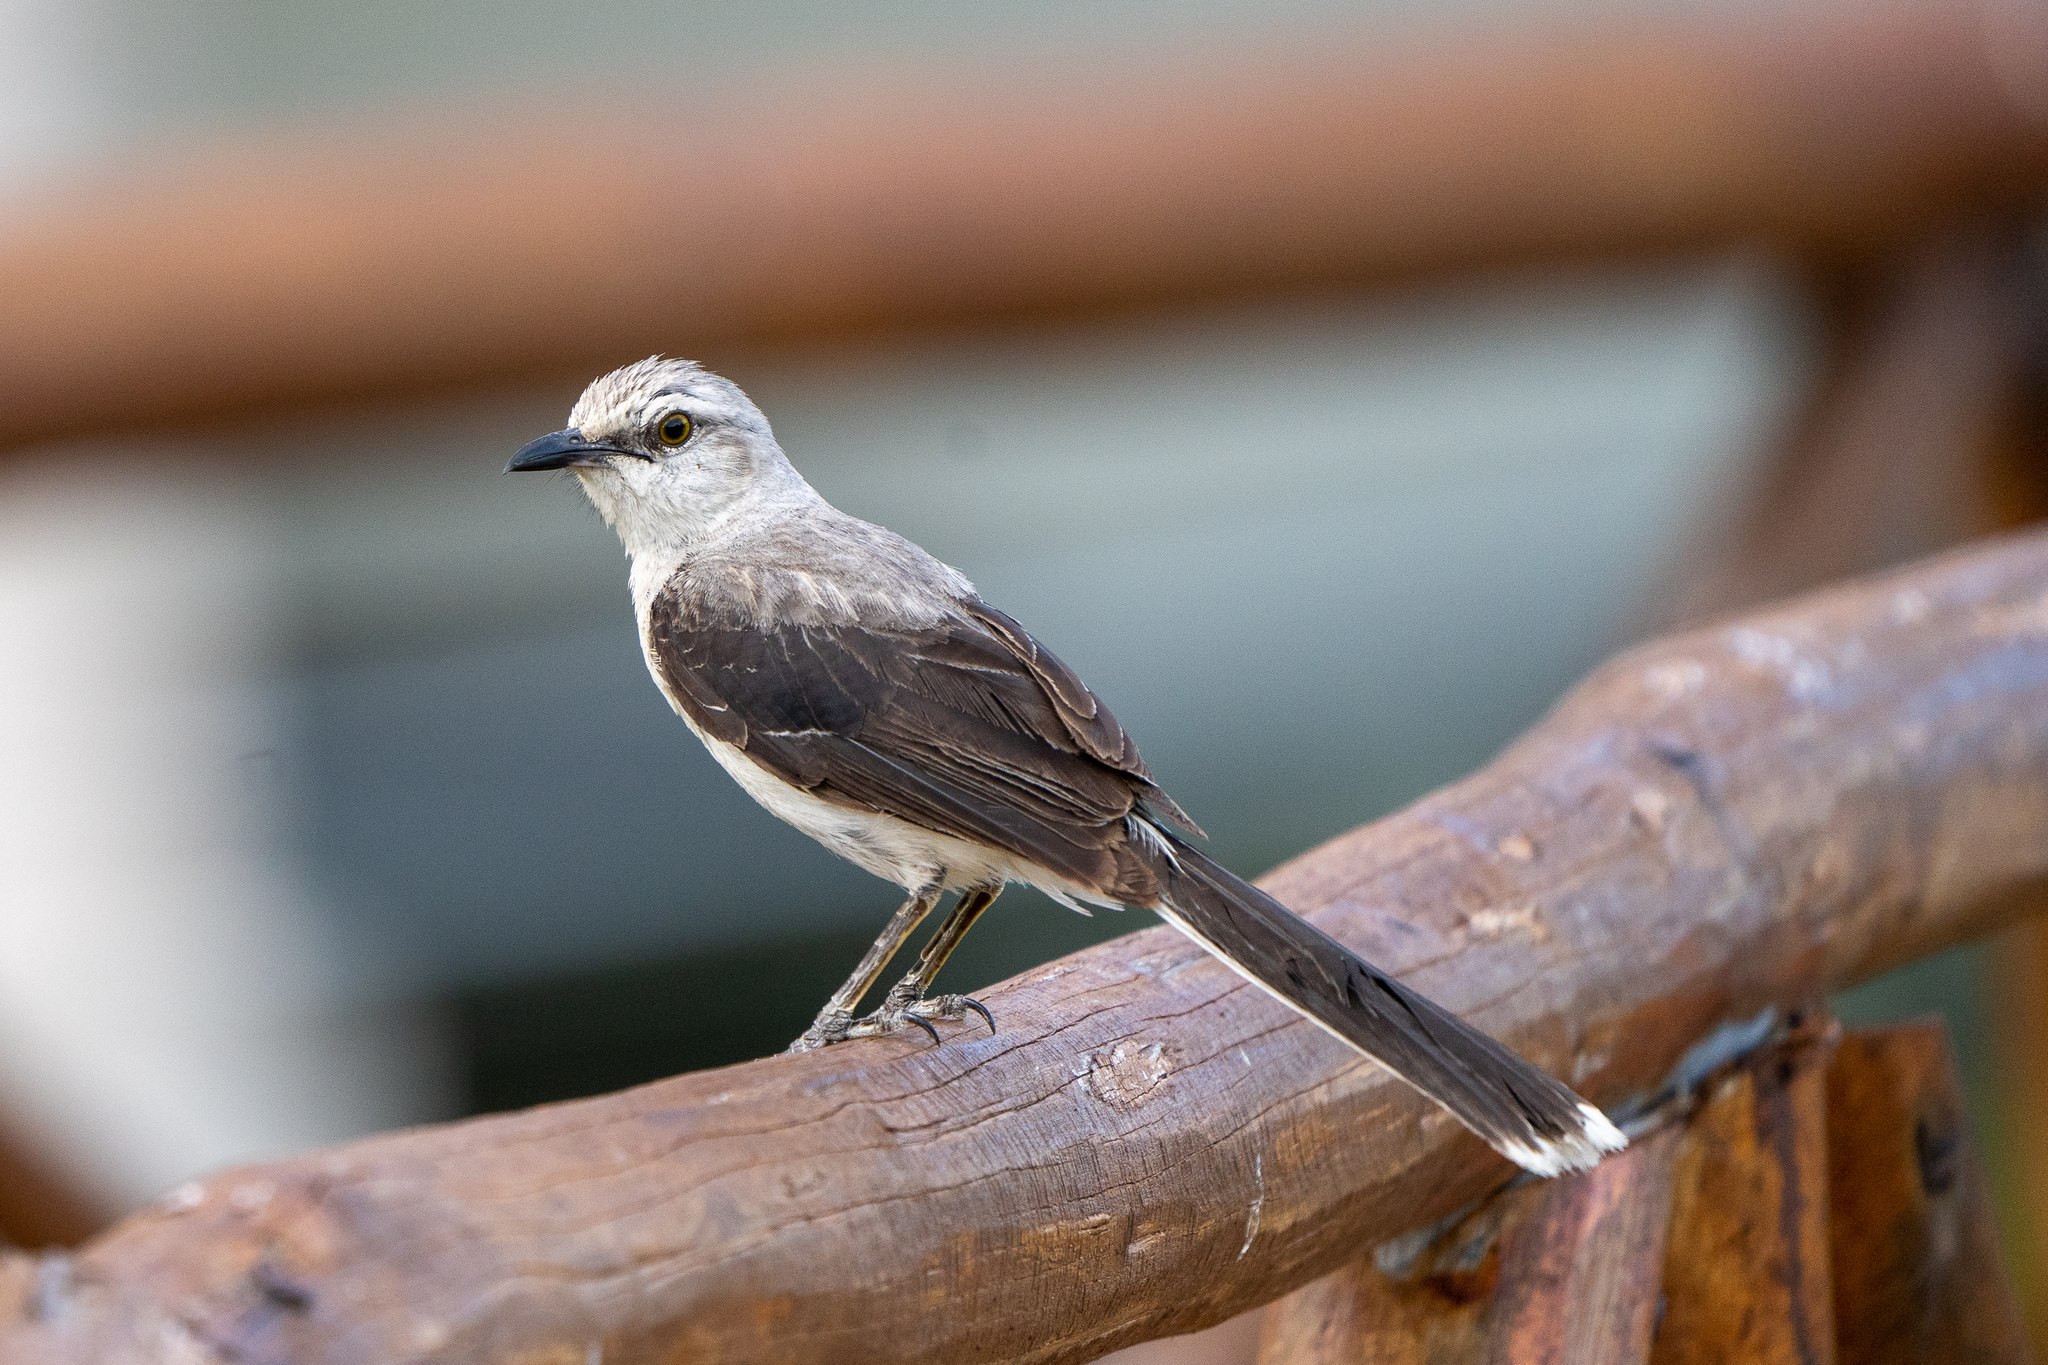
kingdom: Animalia
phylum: Chordata
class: Aves
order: Passeriformes
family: Mimidae
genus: Mimus
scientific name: Mimus gilvus
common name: Tropical mockingbird
